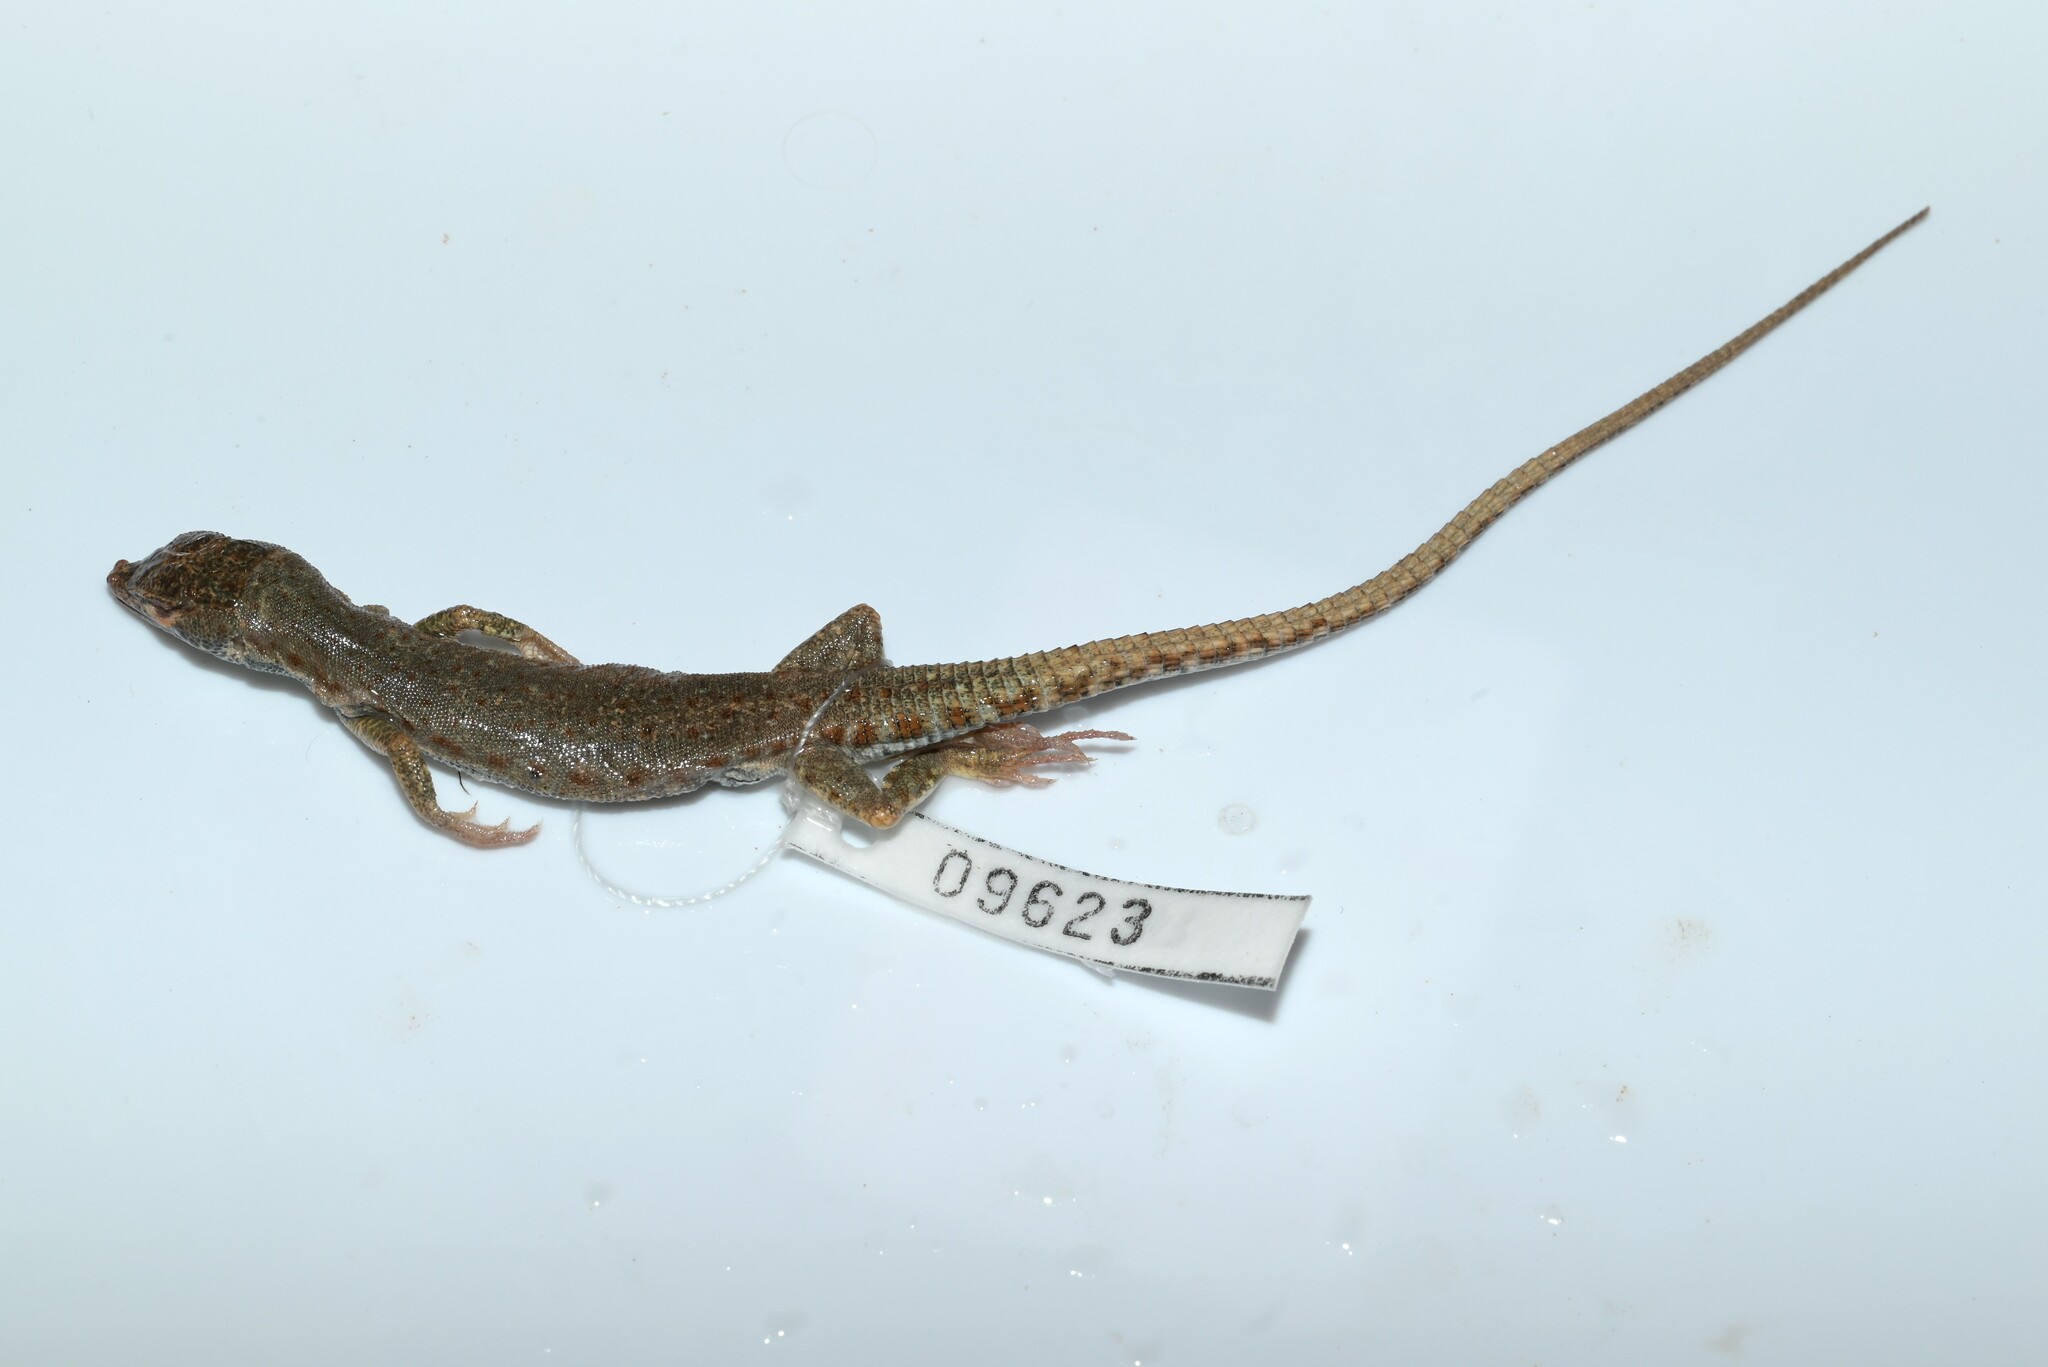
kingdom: Animalia
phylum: Chordata
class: Squamata
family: Lacertidae
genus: Mesalina
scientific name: Mesalina brevirostris
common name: Blanford's short-nosed desert lizard
